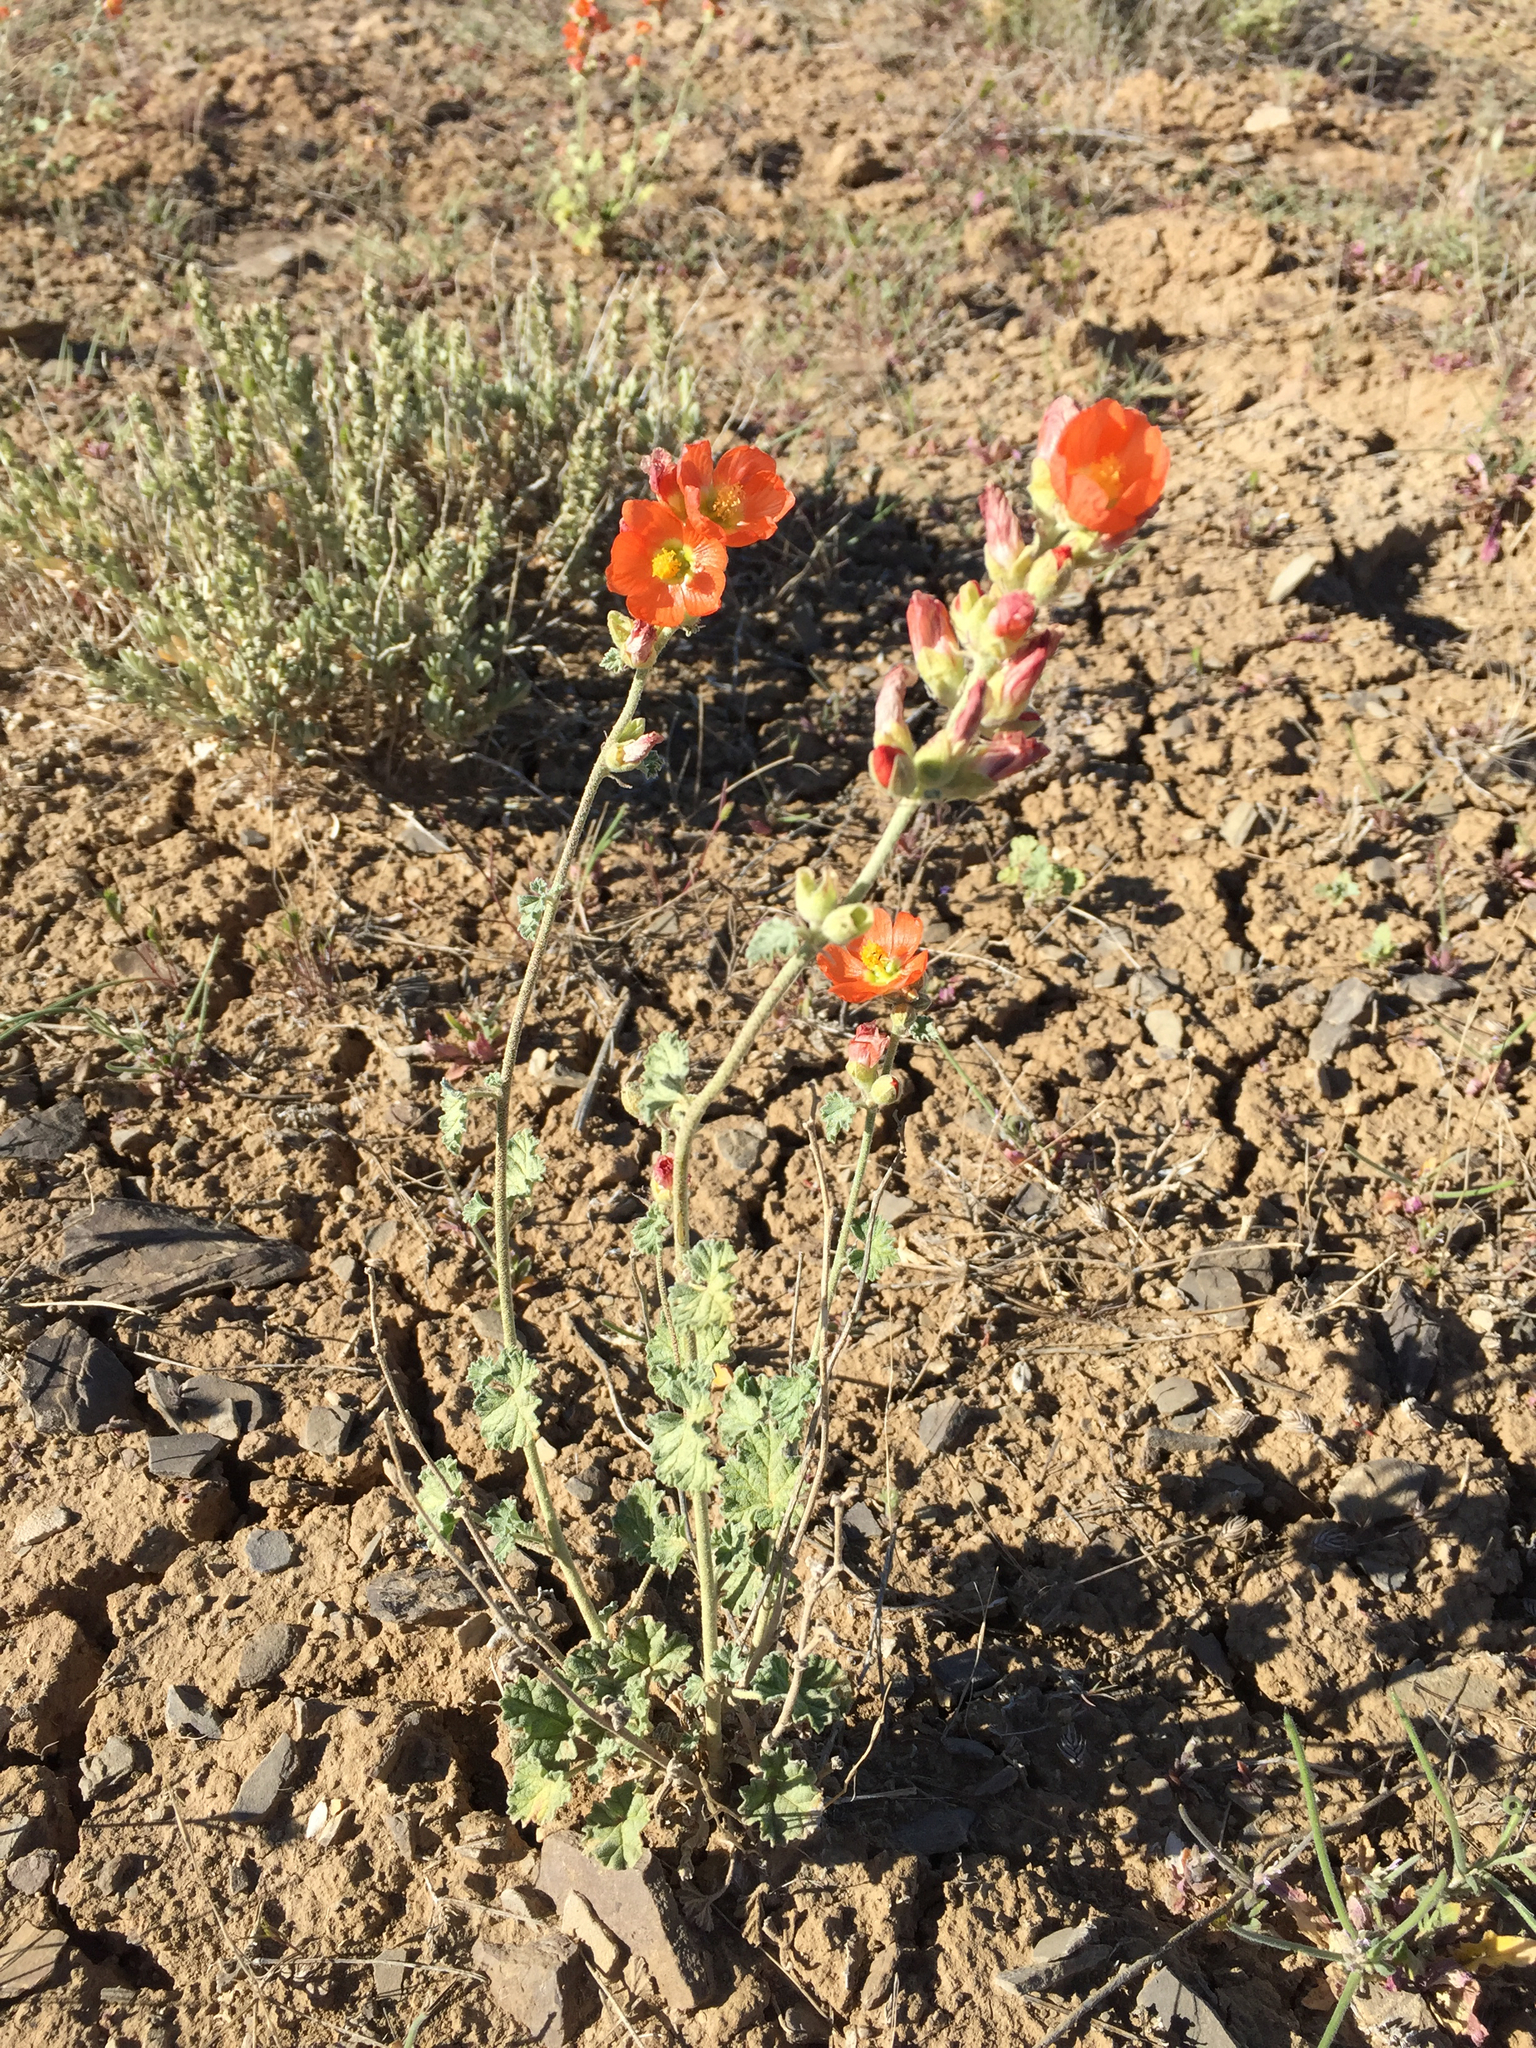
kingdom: Plantae
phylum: Tracheophyta
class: Magnoliopsida
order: Malvales
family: Malvaceae
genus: Sphaeralcea
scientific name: Sphaeralcea parvifolia
